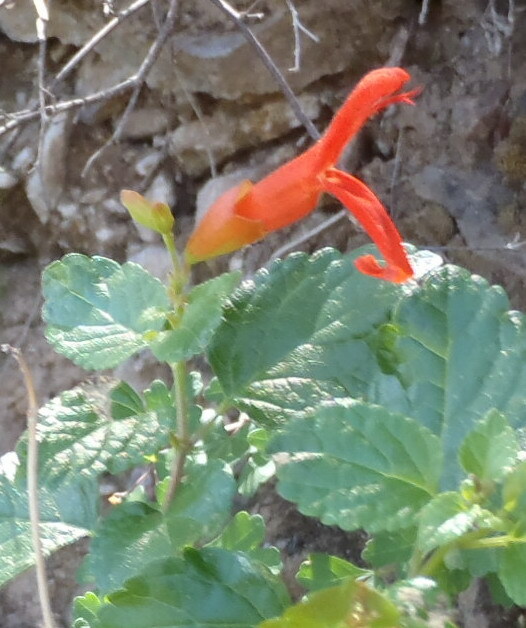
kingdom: Plantae
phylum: Tracheophyta
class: Magnoliopsida
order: Lamiales
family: Lamiaceae
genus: Salvia
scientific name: Salvia regla
